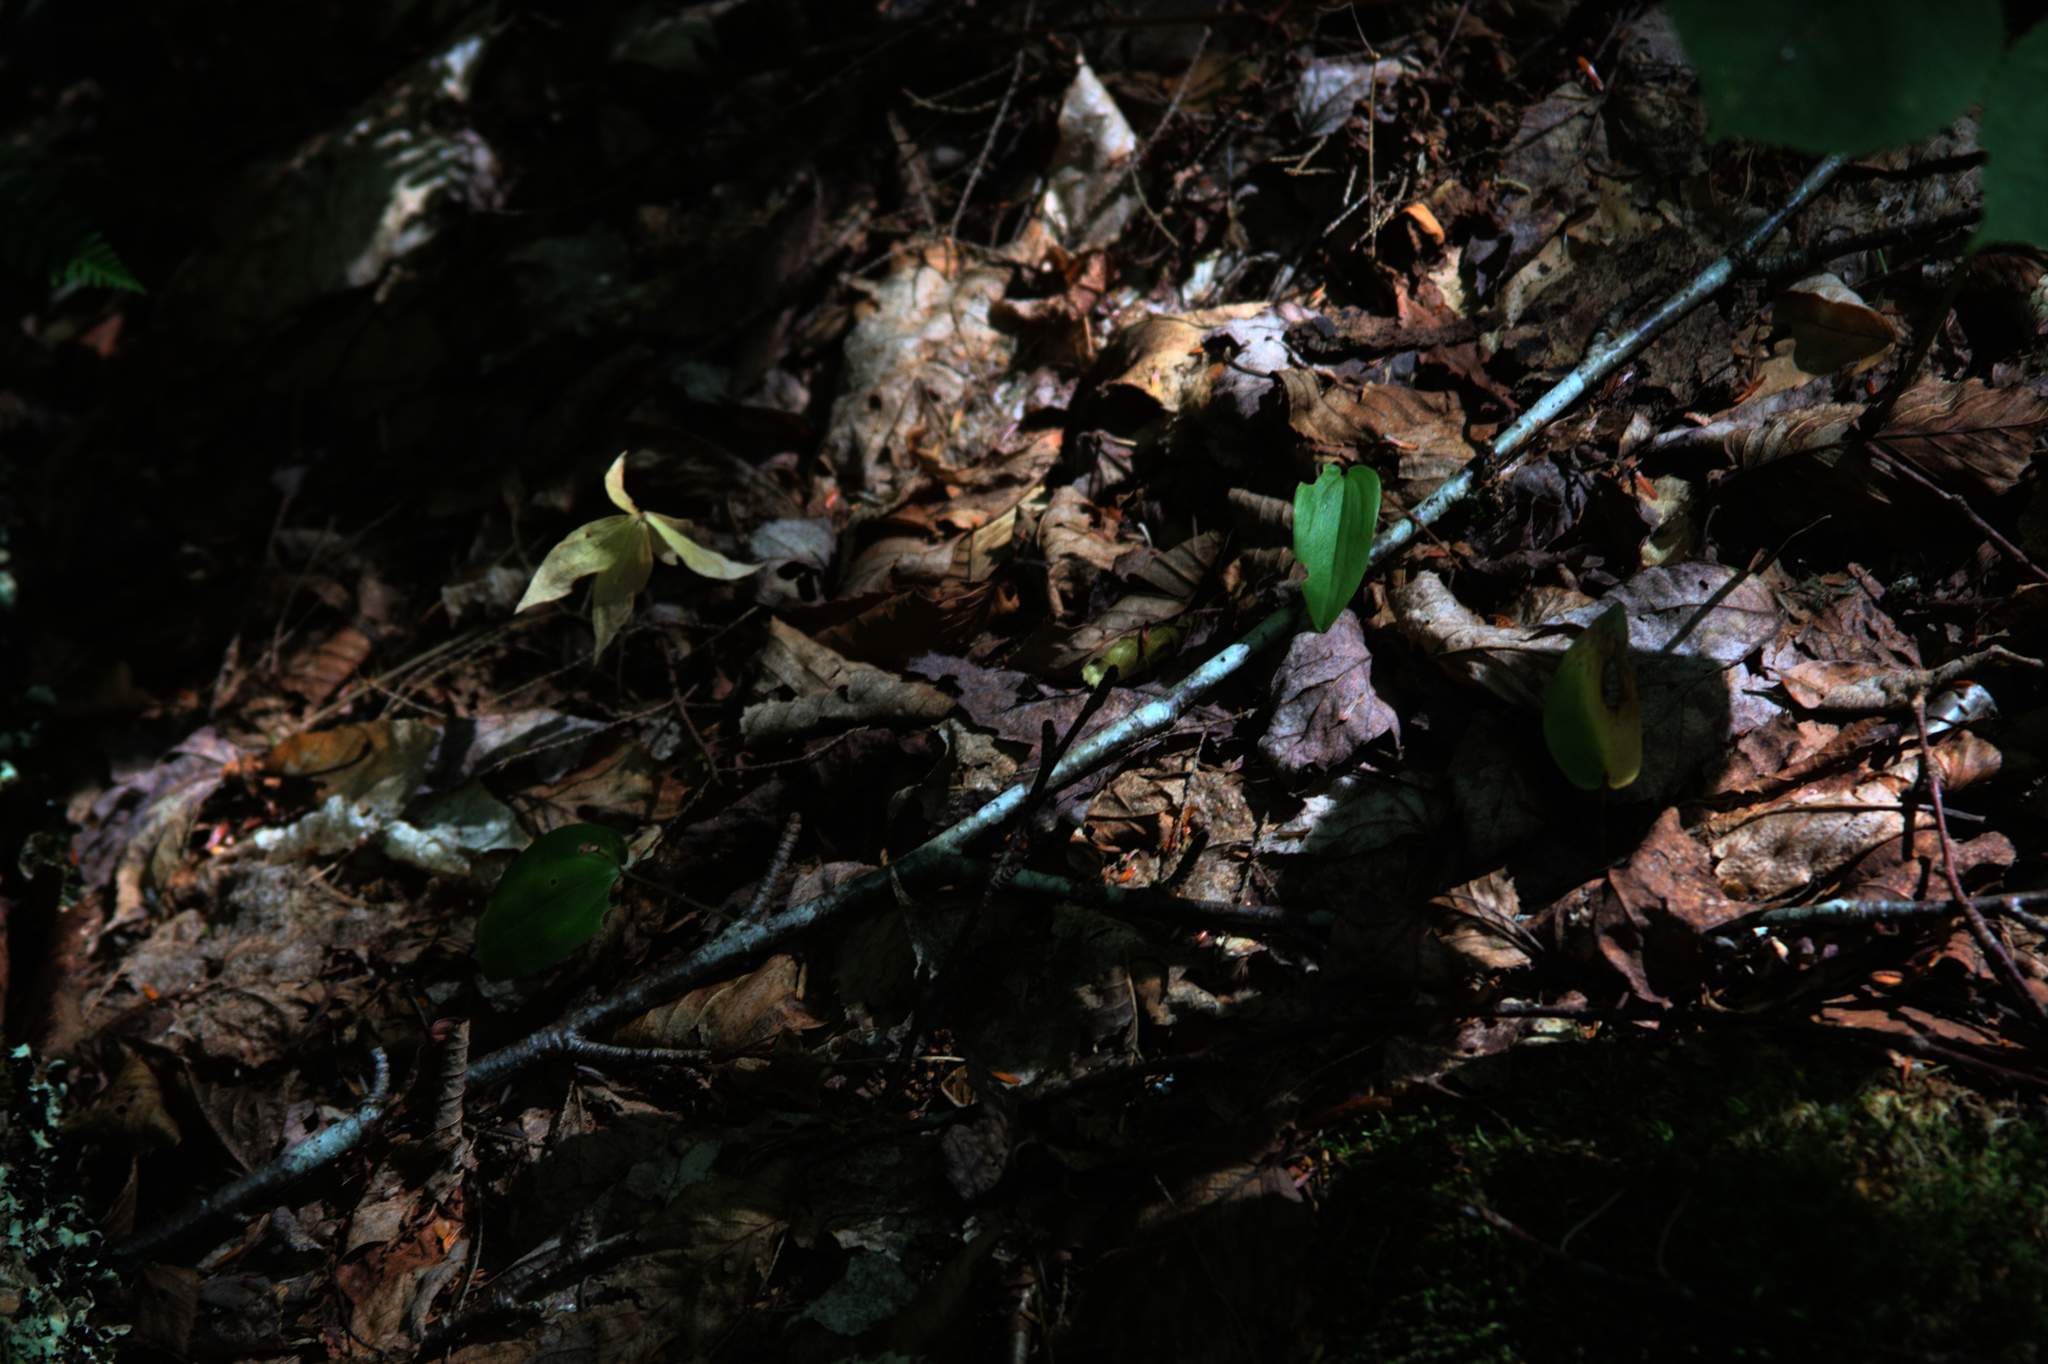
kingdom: Plantae
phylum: Tracheophyta
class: Liliopsida
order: Asparagales
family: Asparagaceae
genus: Maianthemum
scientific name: Maianthemum canadense
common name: False lily-of-the-valley
